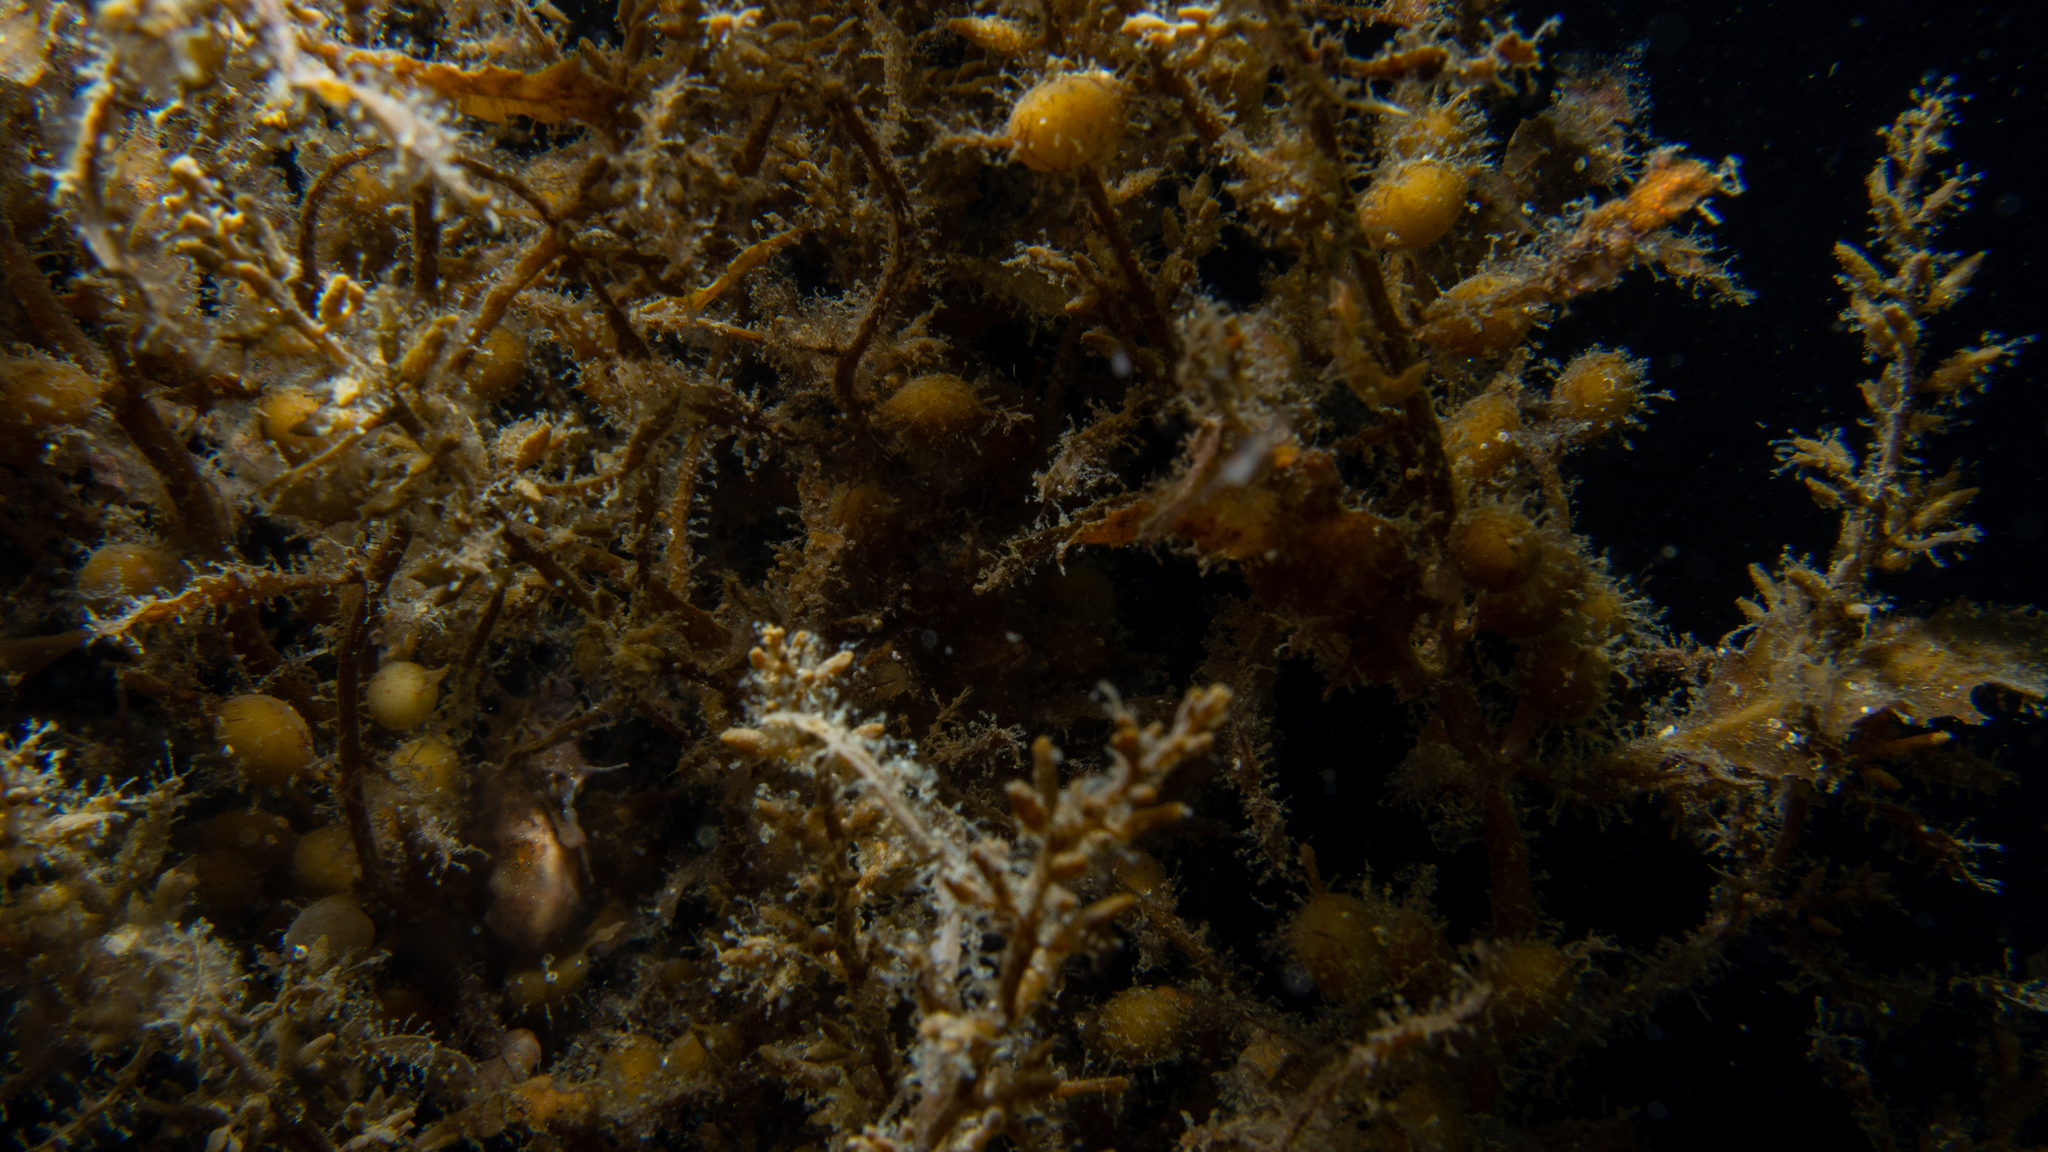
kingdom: Animalia
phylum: Chordata
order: Syngnathiformes
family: Syngnathidae
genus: Hippocampus
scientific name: Hippocampus breviceps
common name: Knobby seahorse
